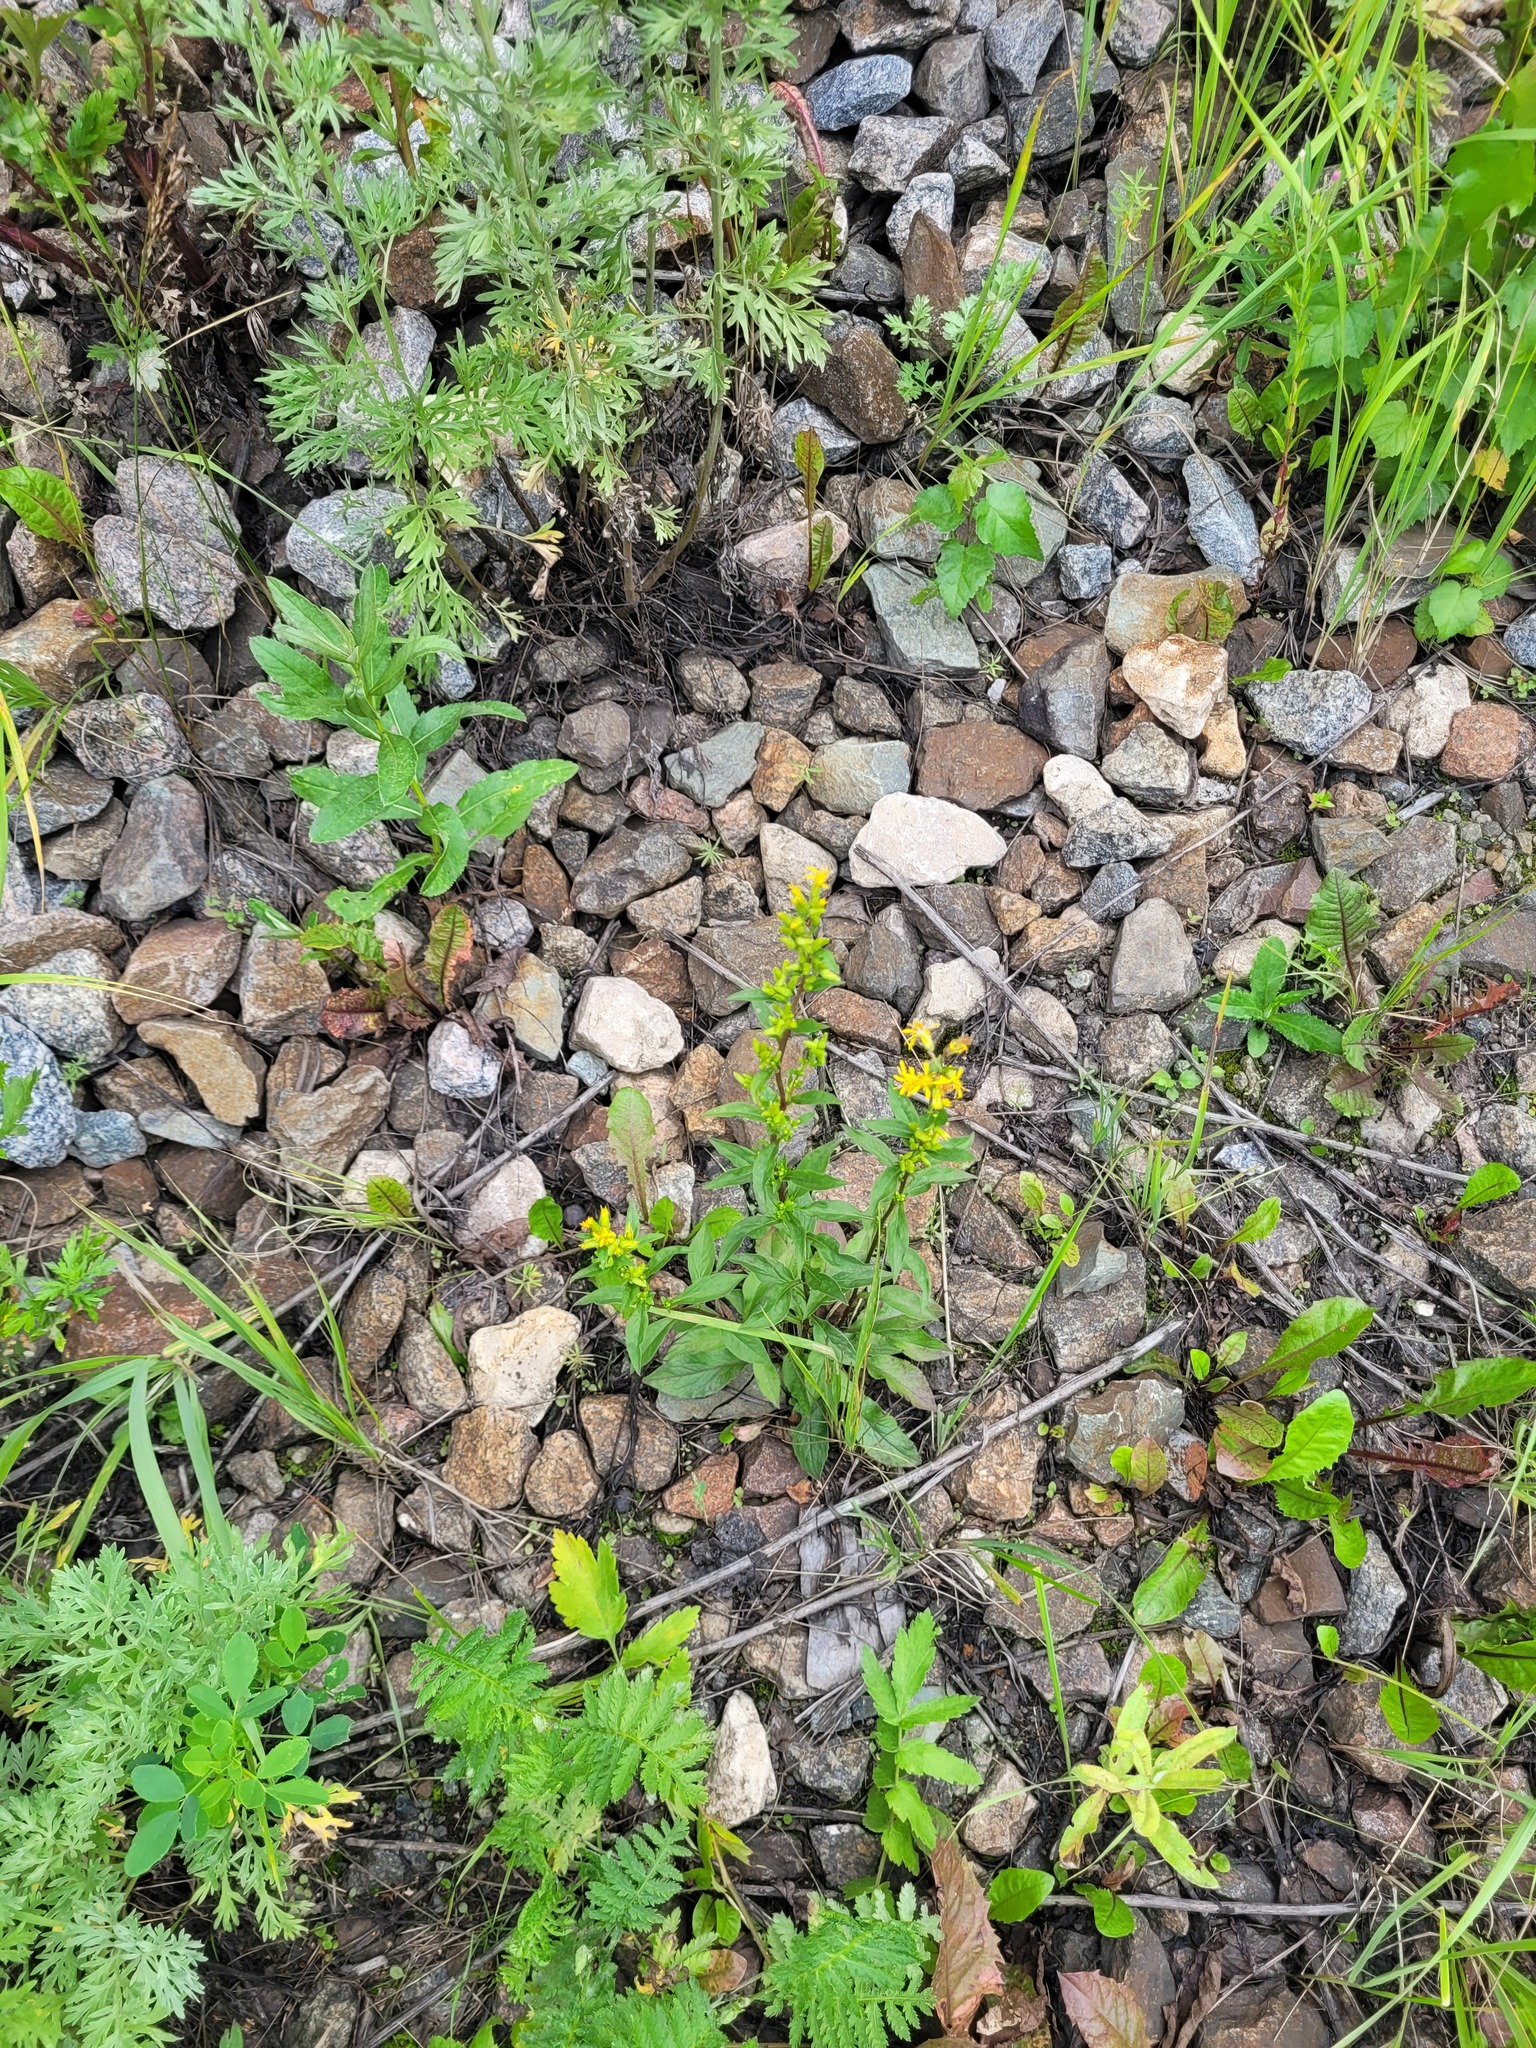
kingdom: Plantae
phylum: Tracheophyta
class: Magnoliopsida
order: Asterales
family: Asteraceae
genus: Solidago
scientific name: Solidago virgaurea
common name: Goldenrod
